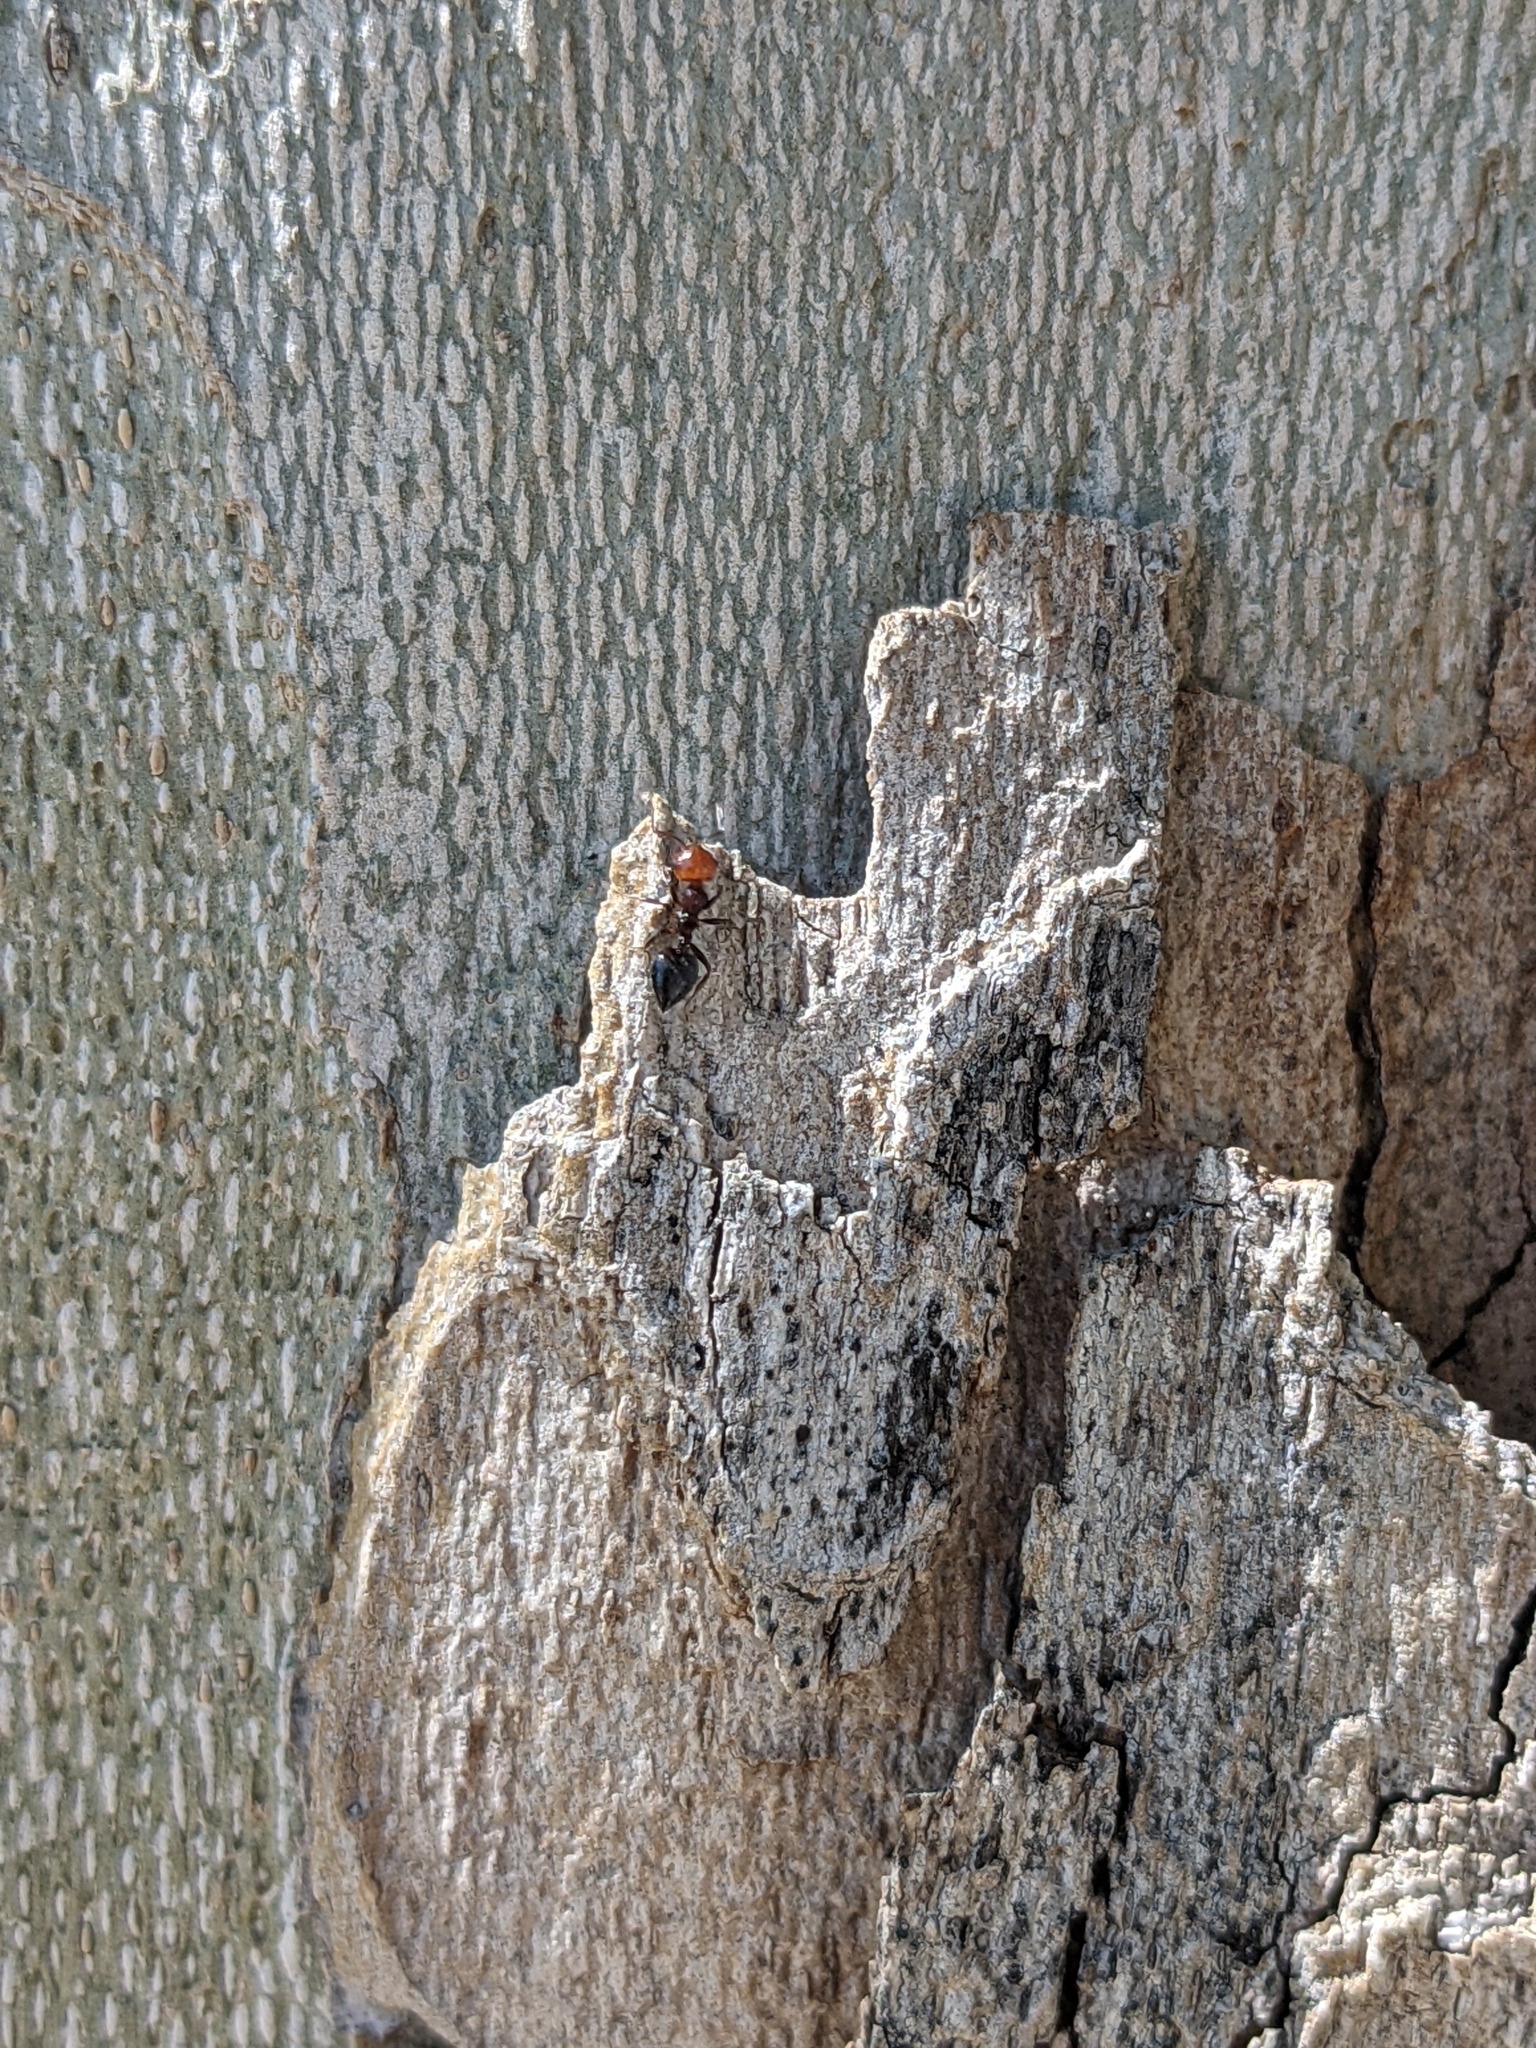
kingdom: Animalia
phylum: Arthropoda
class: Insecta
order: Hymenoptera
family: Formicidae
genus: Crematogaster
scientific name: Crematogaster scutellaris
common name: Fourmi du liège
